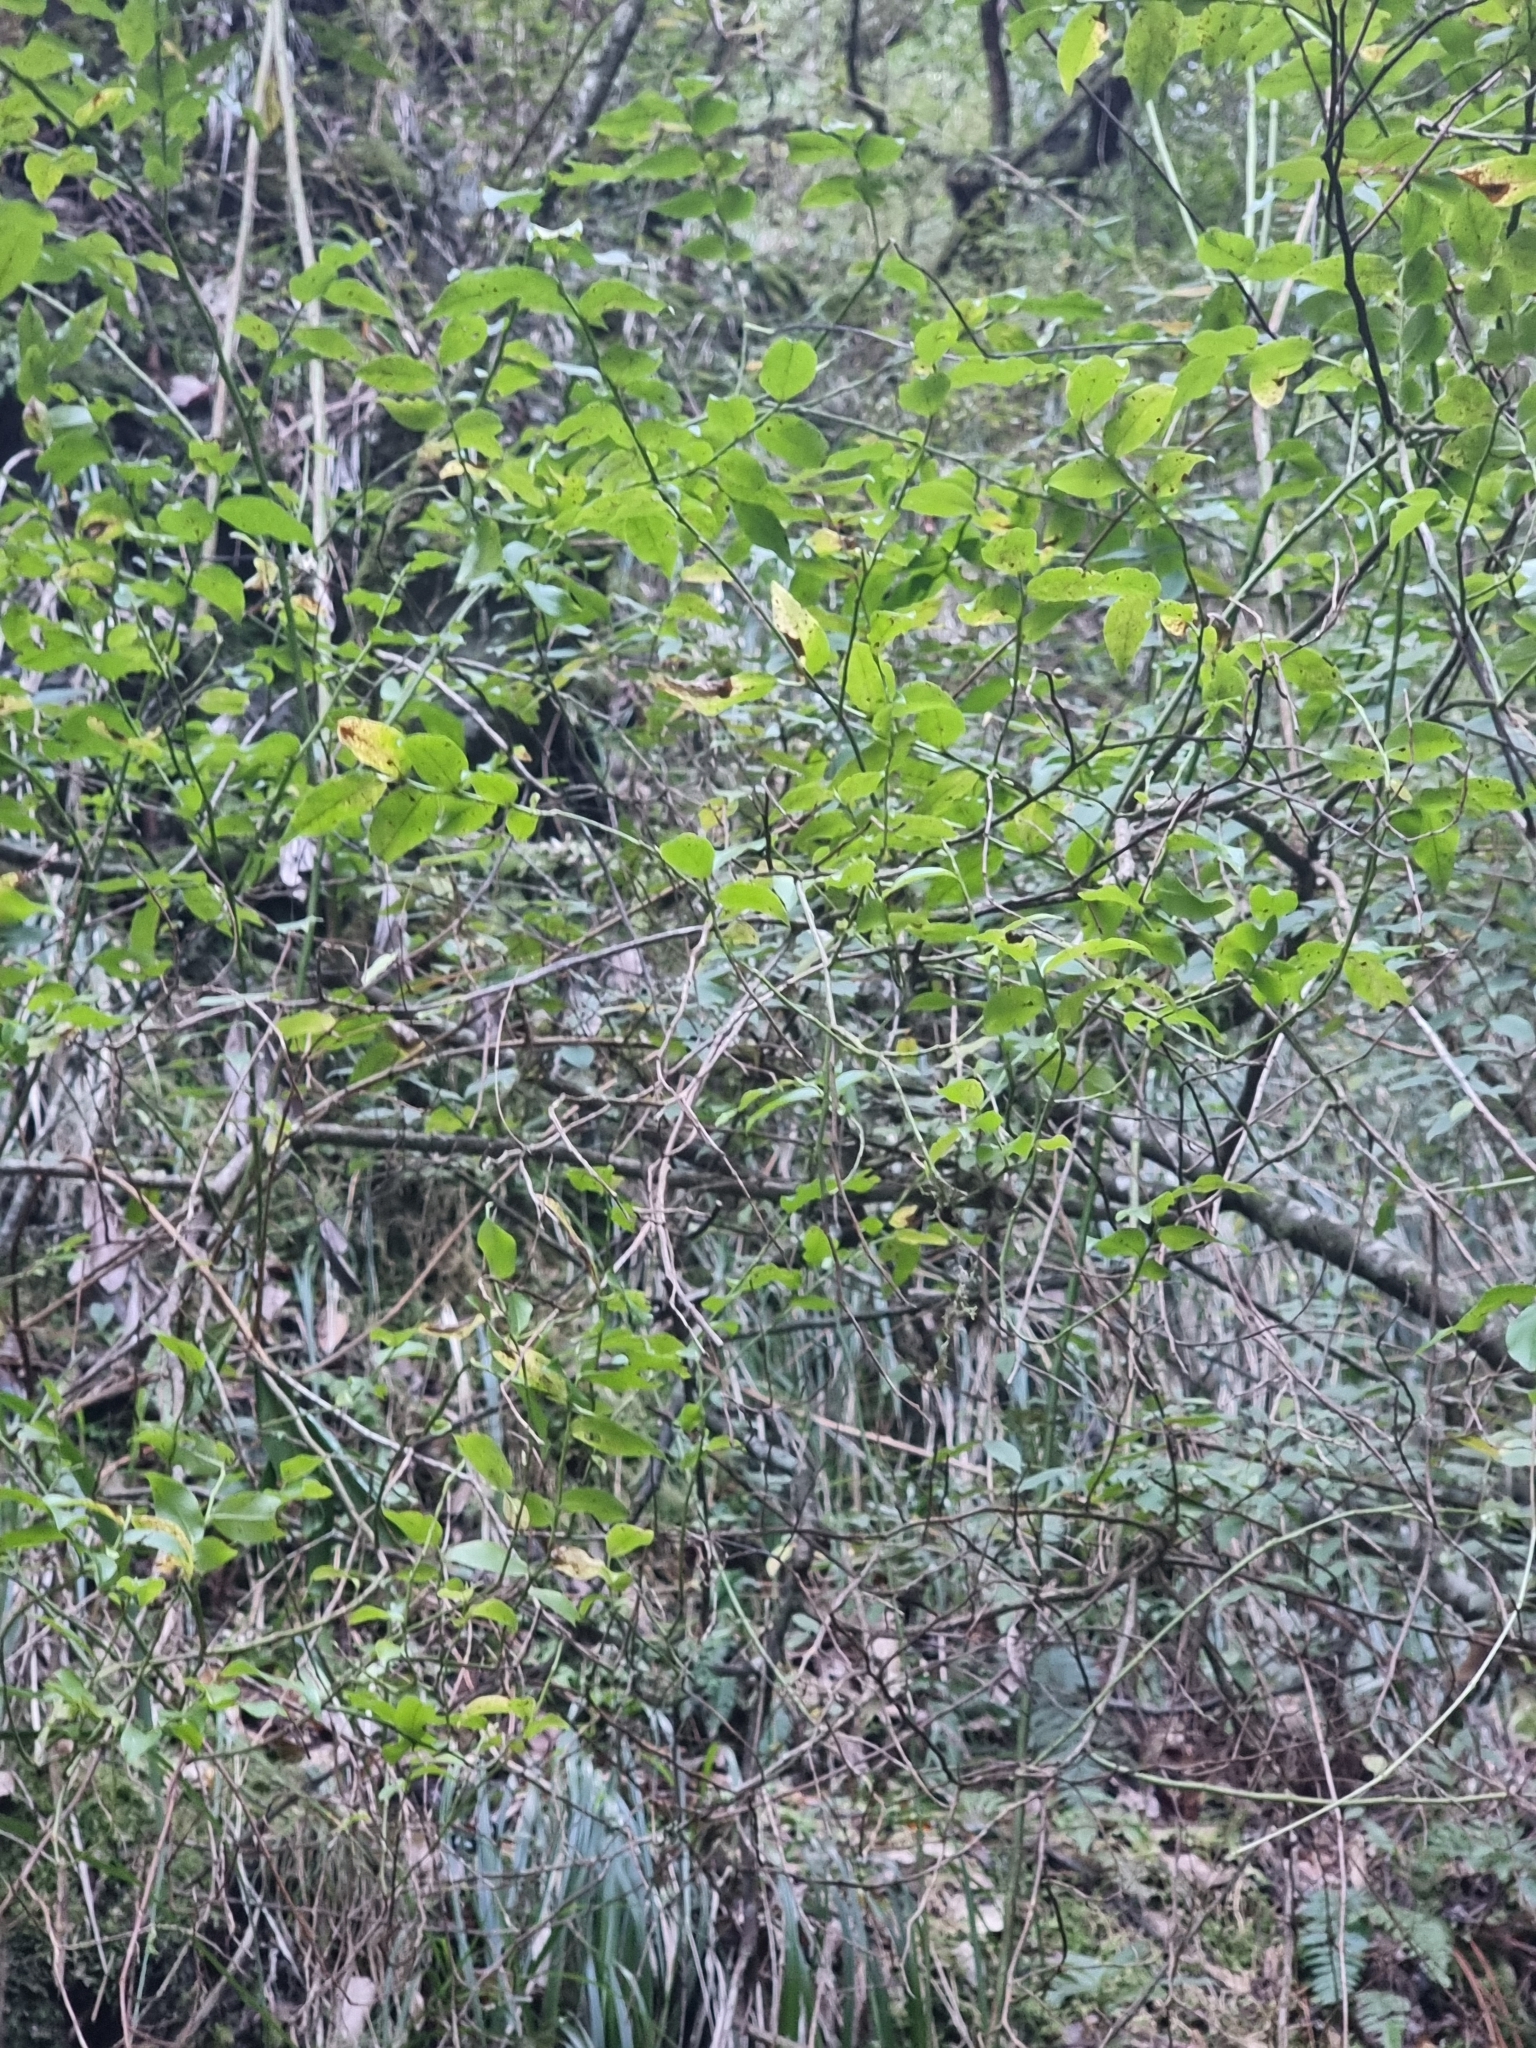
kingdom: Plantae
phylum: Tracheophyta
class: Magnoliopsida
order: Ericales
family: Ericaceae
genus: Vaccinium
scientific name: Vaccinium padifolium
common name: Madeiran blueberry
